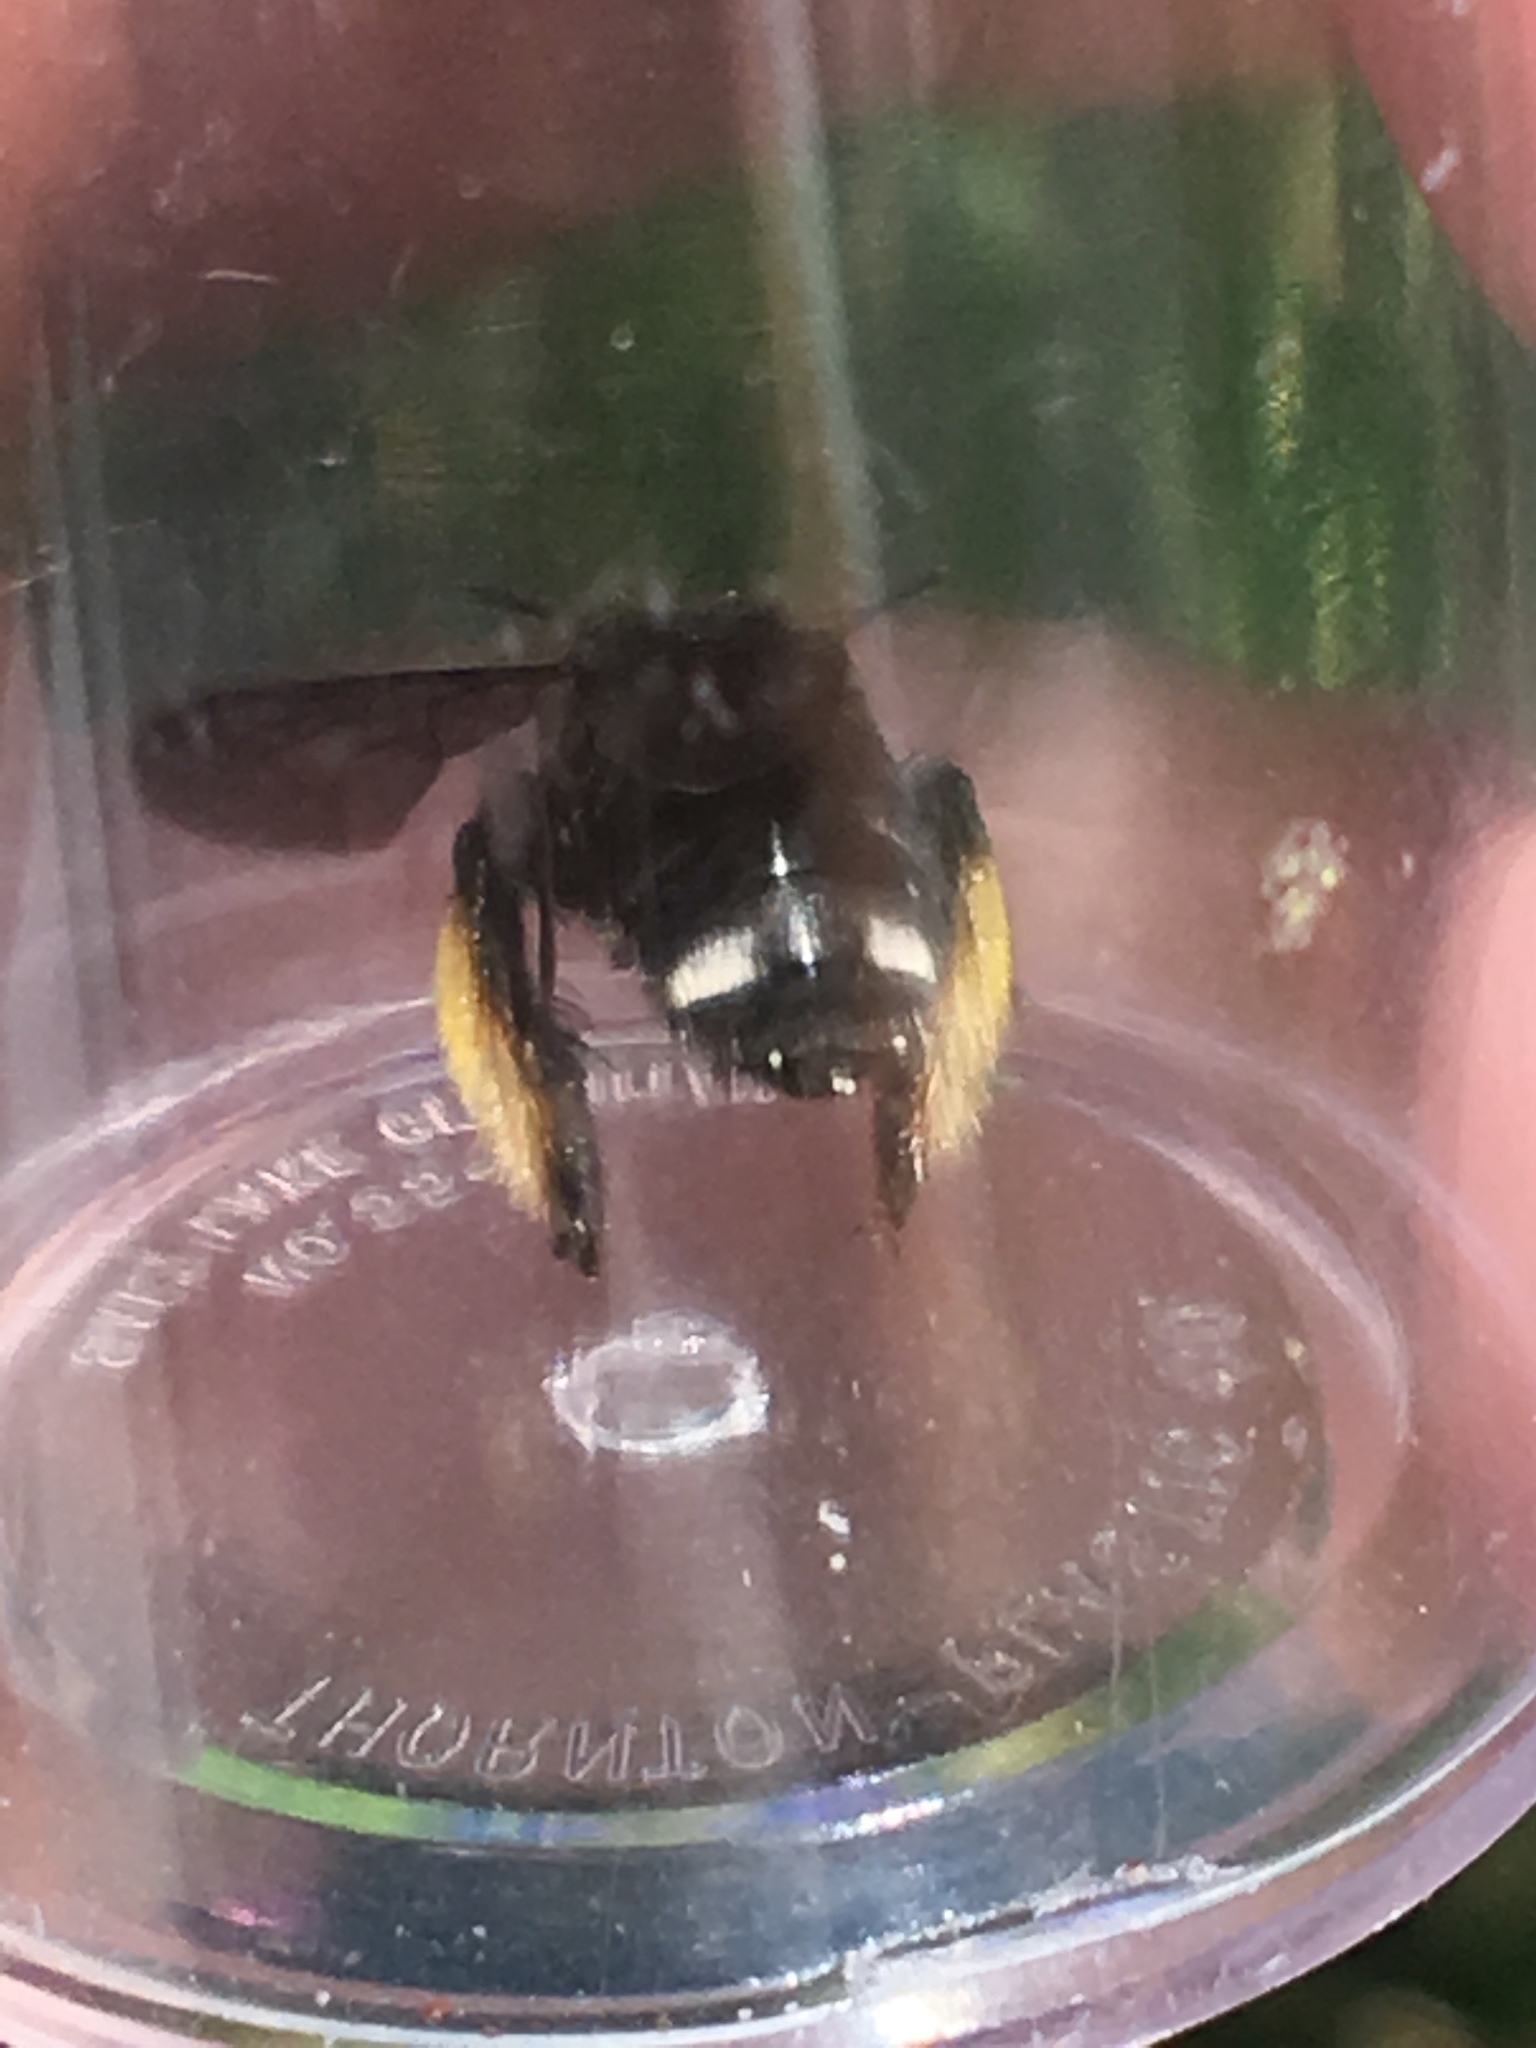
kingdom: Animalia
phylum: Arthropoda
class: Insecta
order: Hymenoptera
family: Apidae
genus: Melissodes
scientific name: Melissodes bimaculatus
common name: Two-spotted long-horned bee
